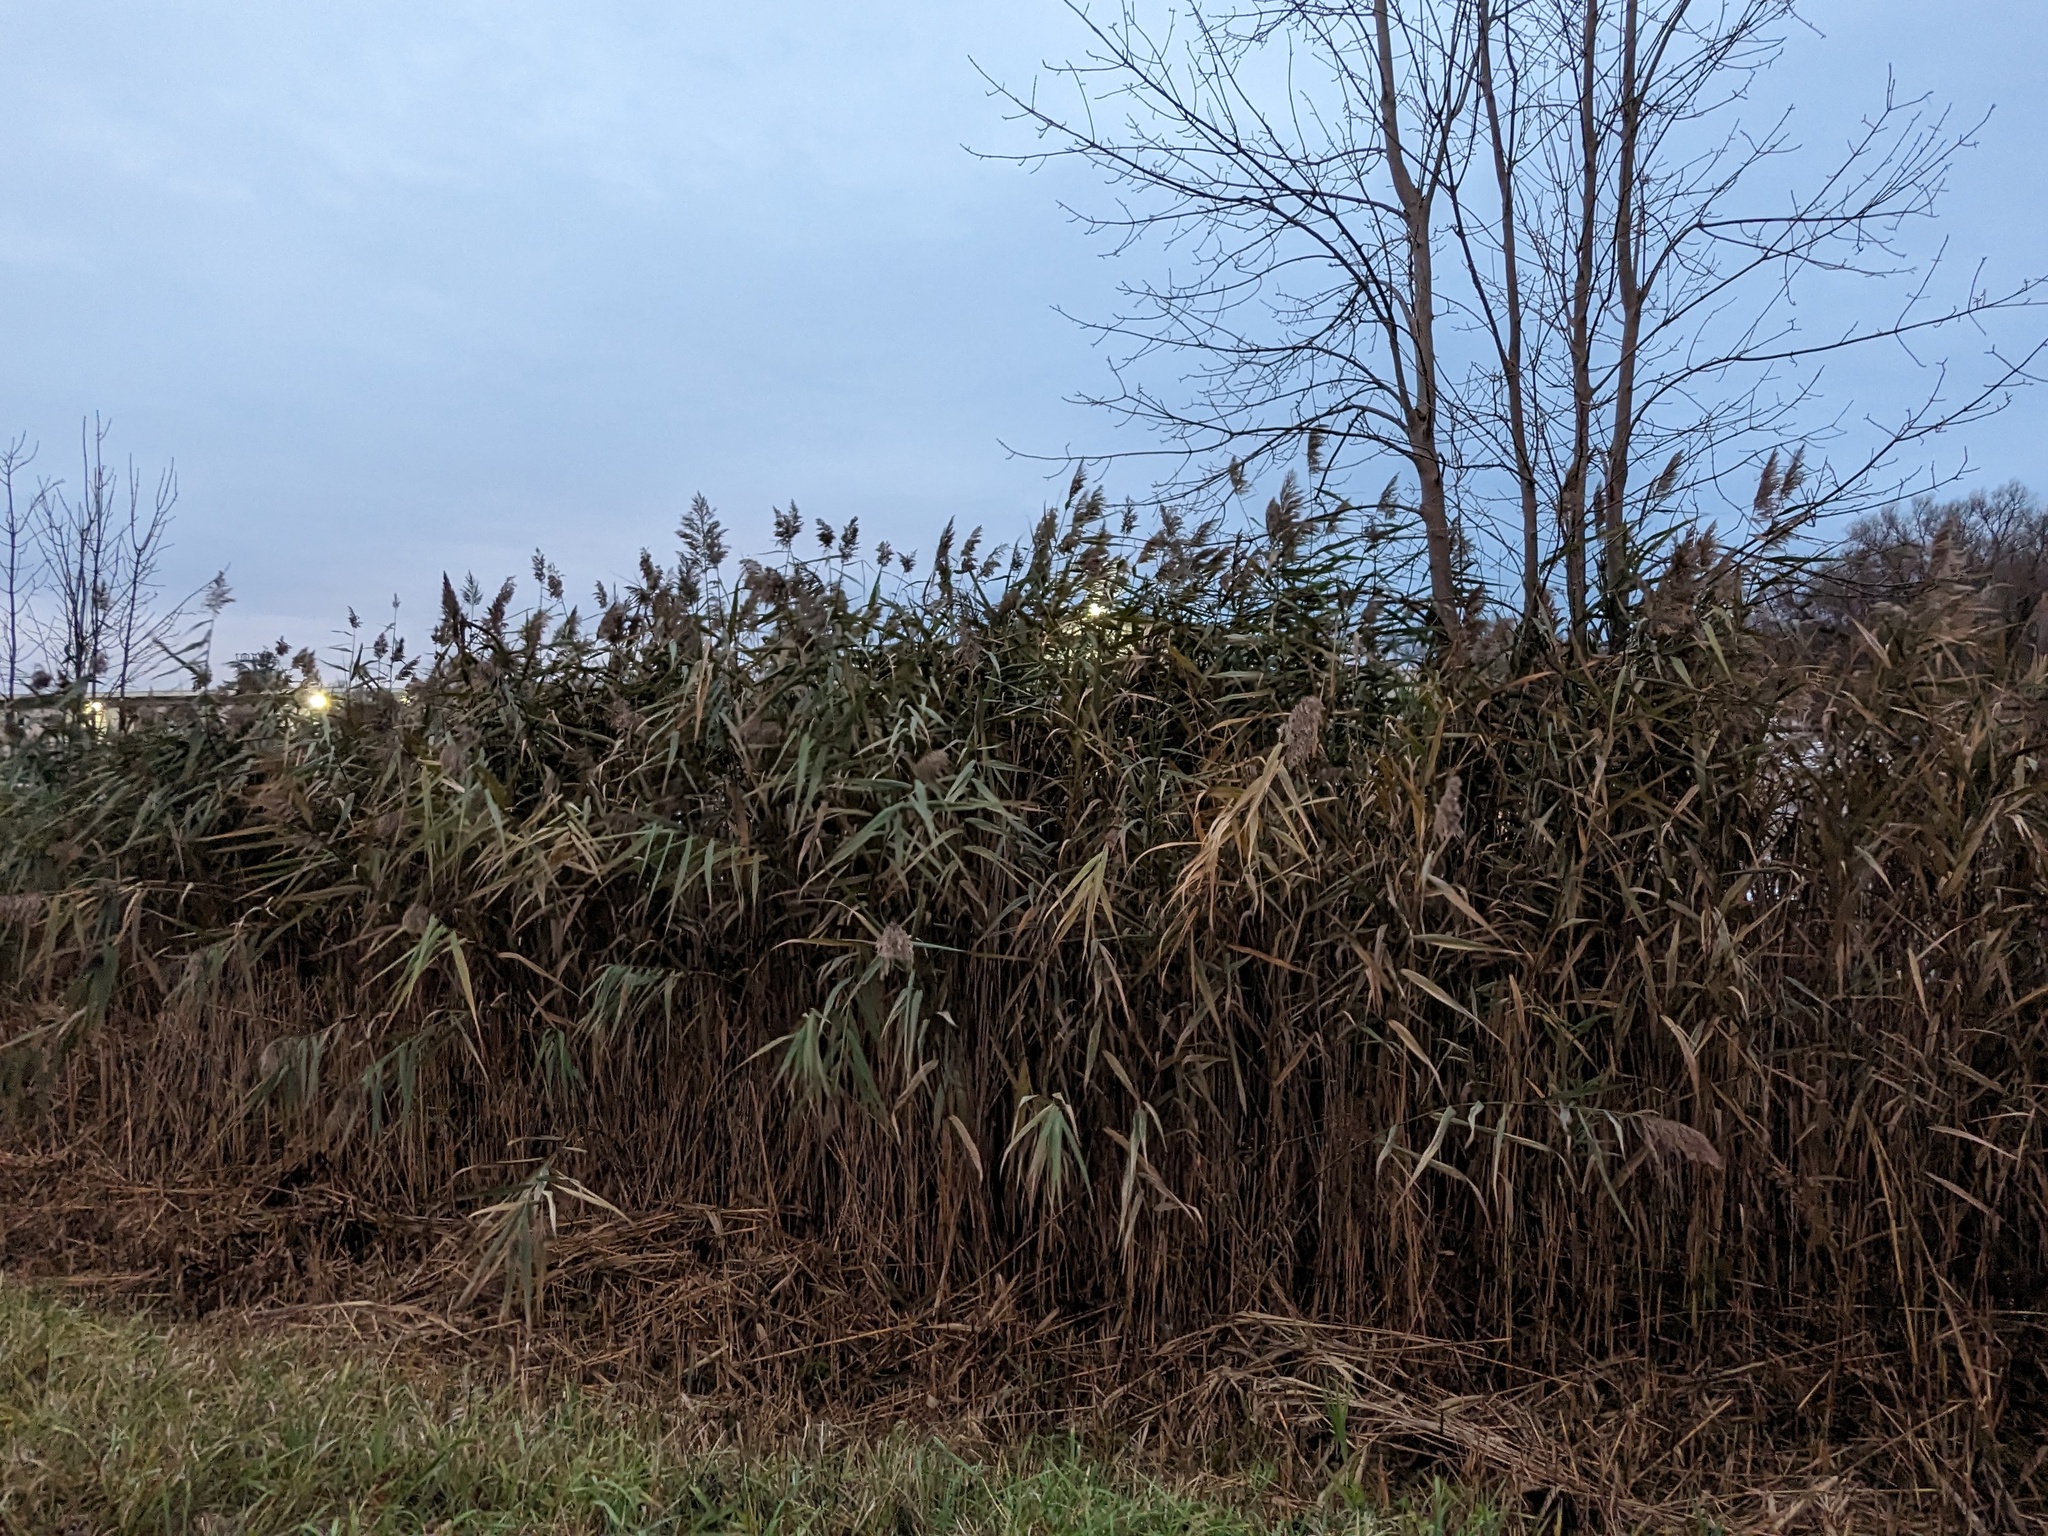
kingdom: Plantae
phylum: Tracheophyta
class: Liliopsida
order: Poales
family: Poaceae
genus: Phragmites
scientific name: Phragmites australis
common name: Common reed
